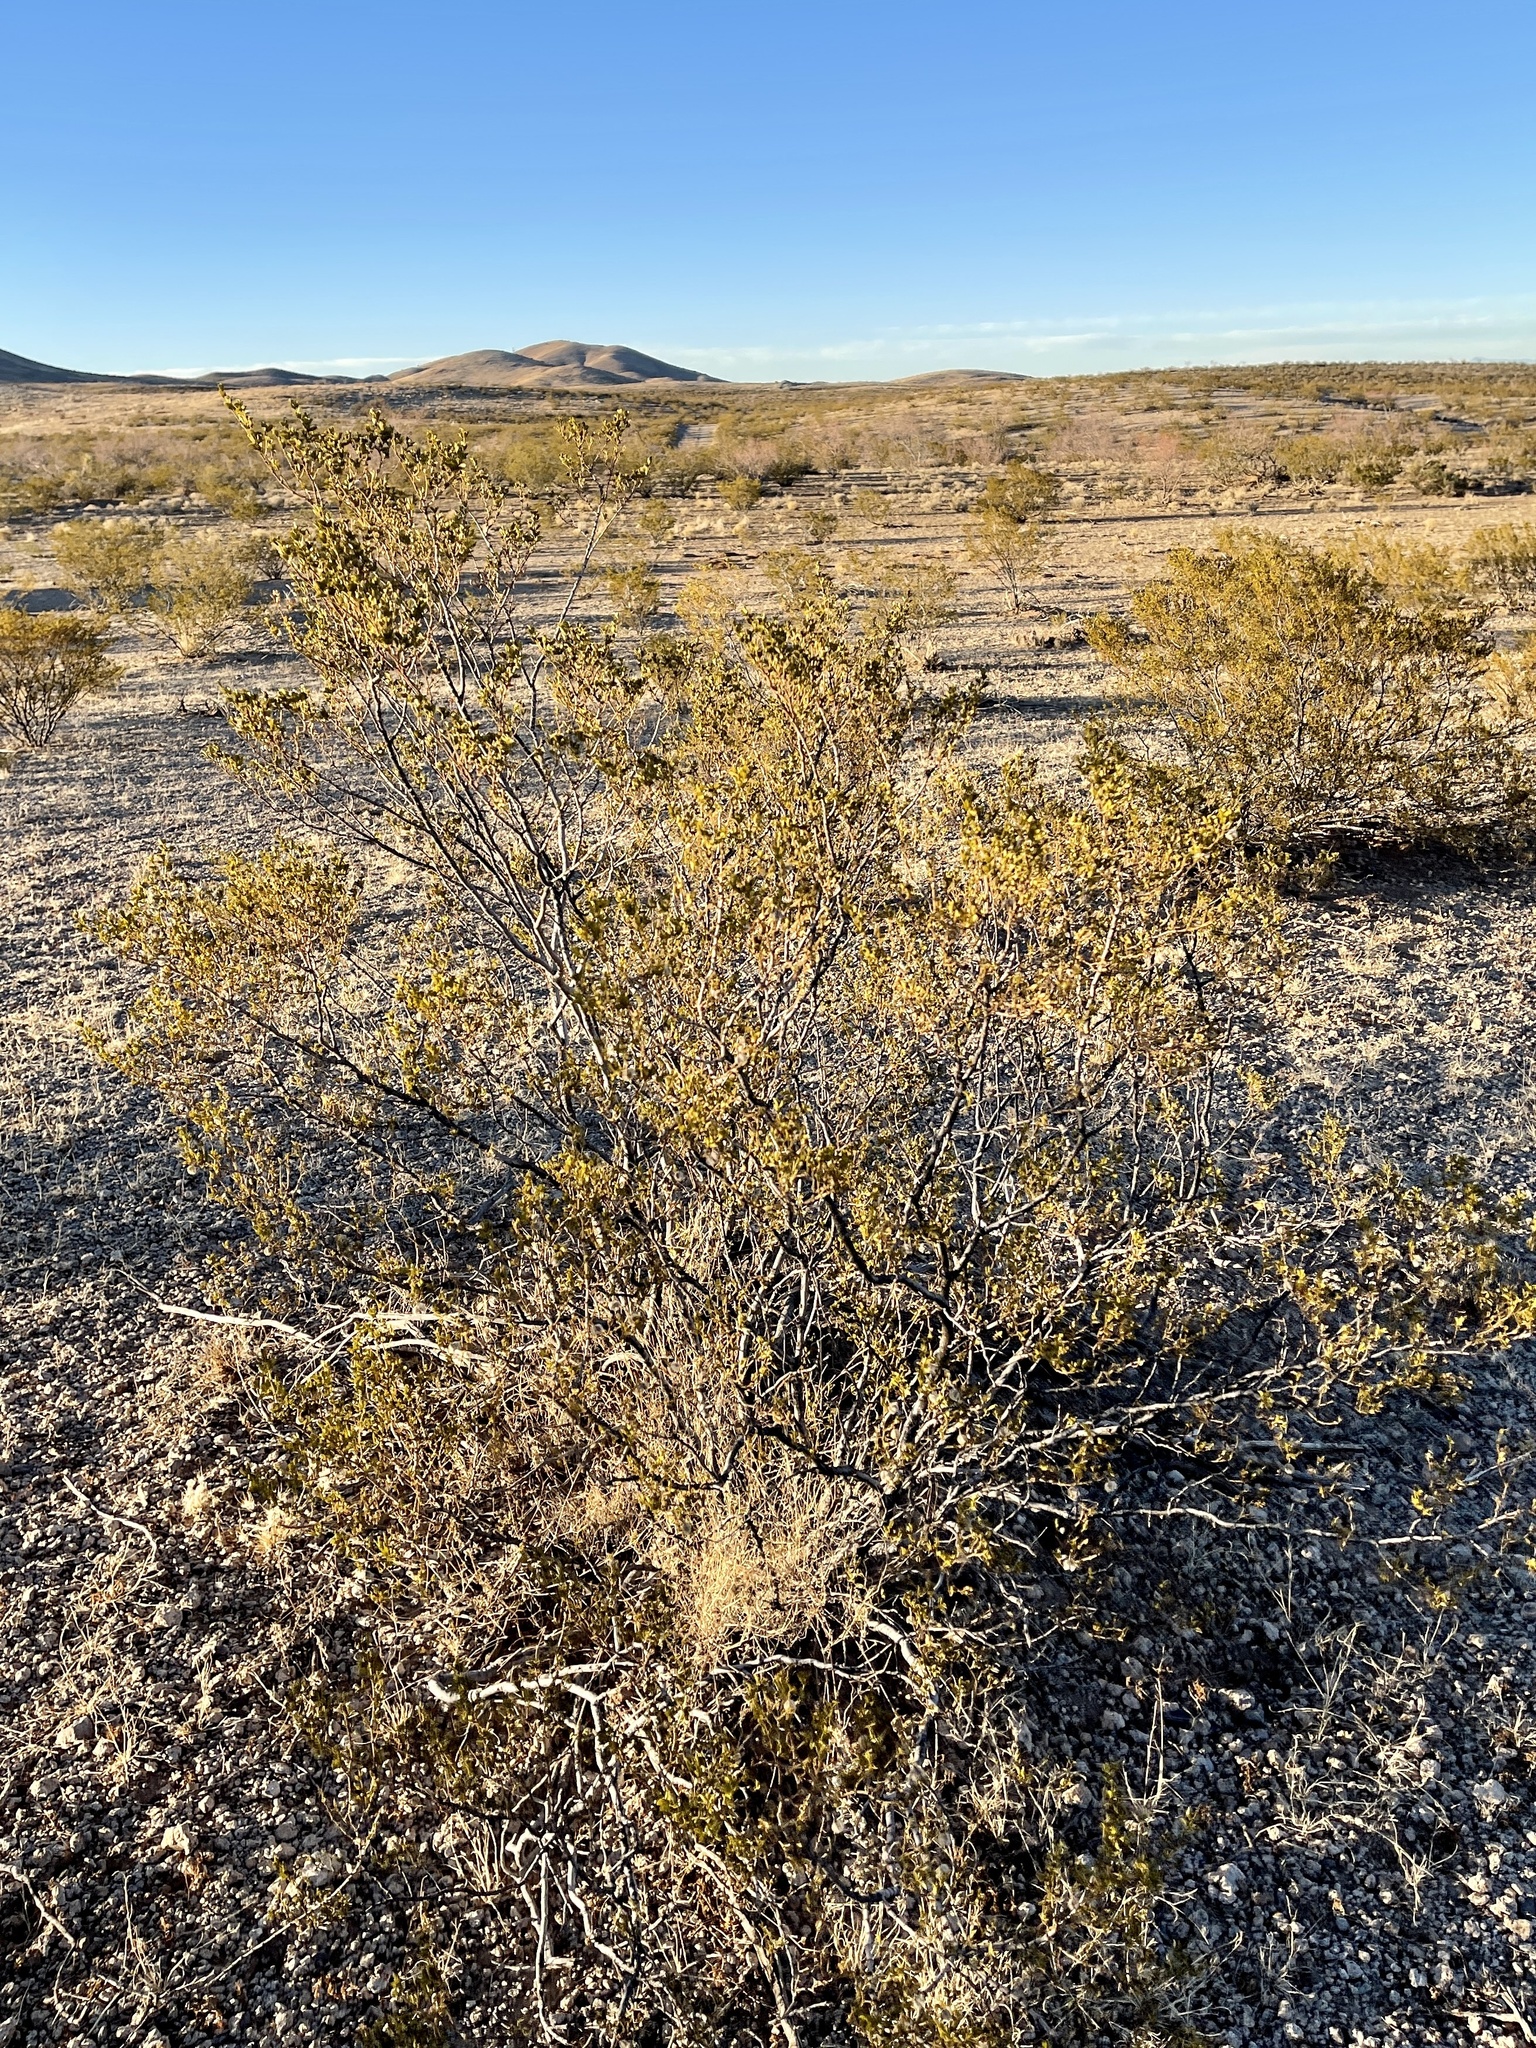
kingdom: Plantae
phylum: Tracheophyta
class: Magnoliopsida
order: Zygophyllales
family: Zygophyllaceae
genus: Larrea
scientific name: Larrea tridentata
